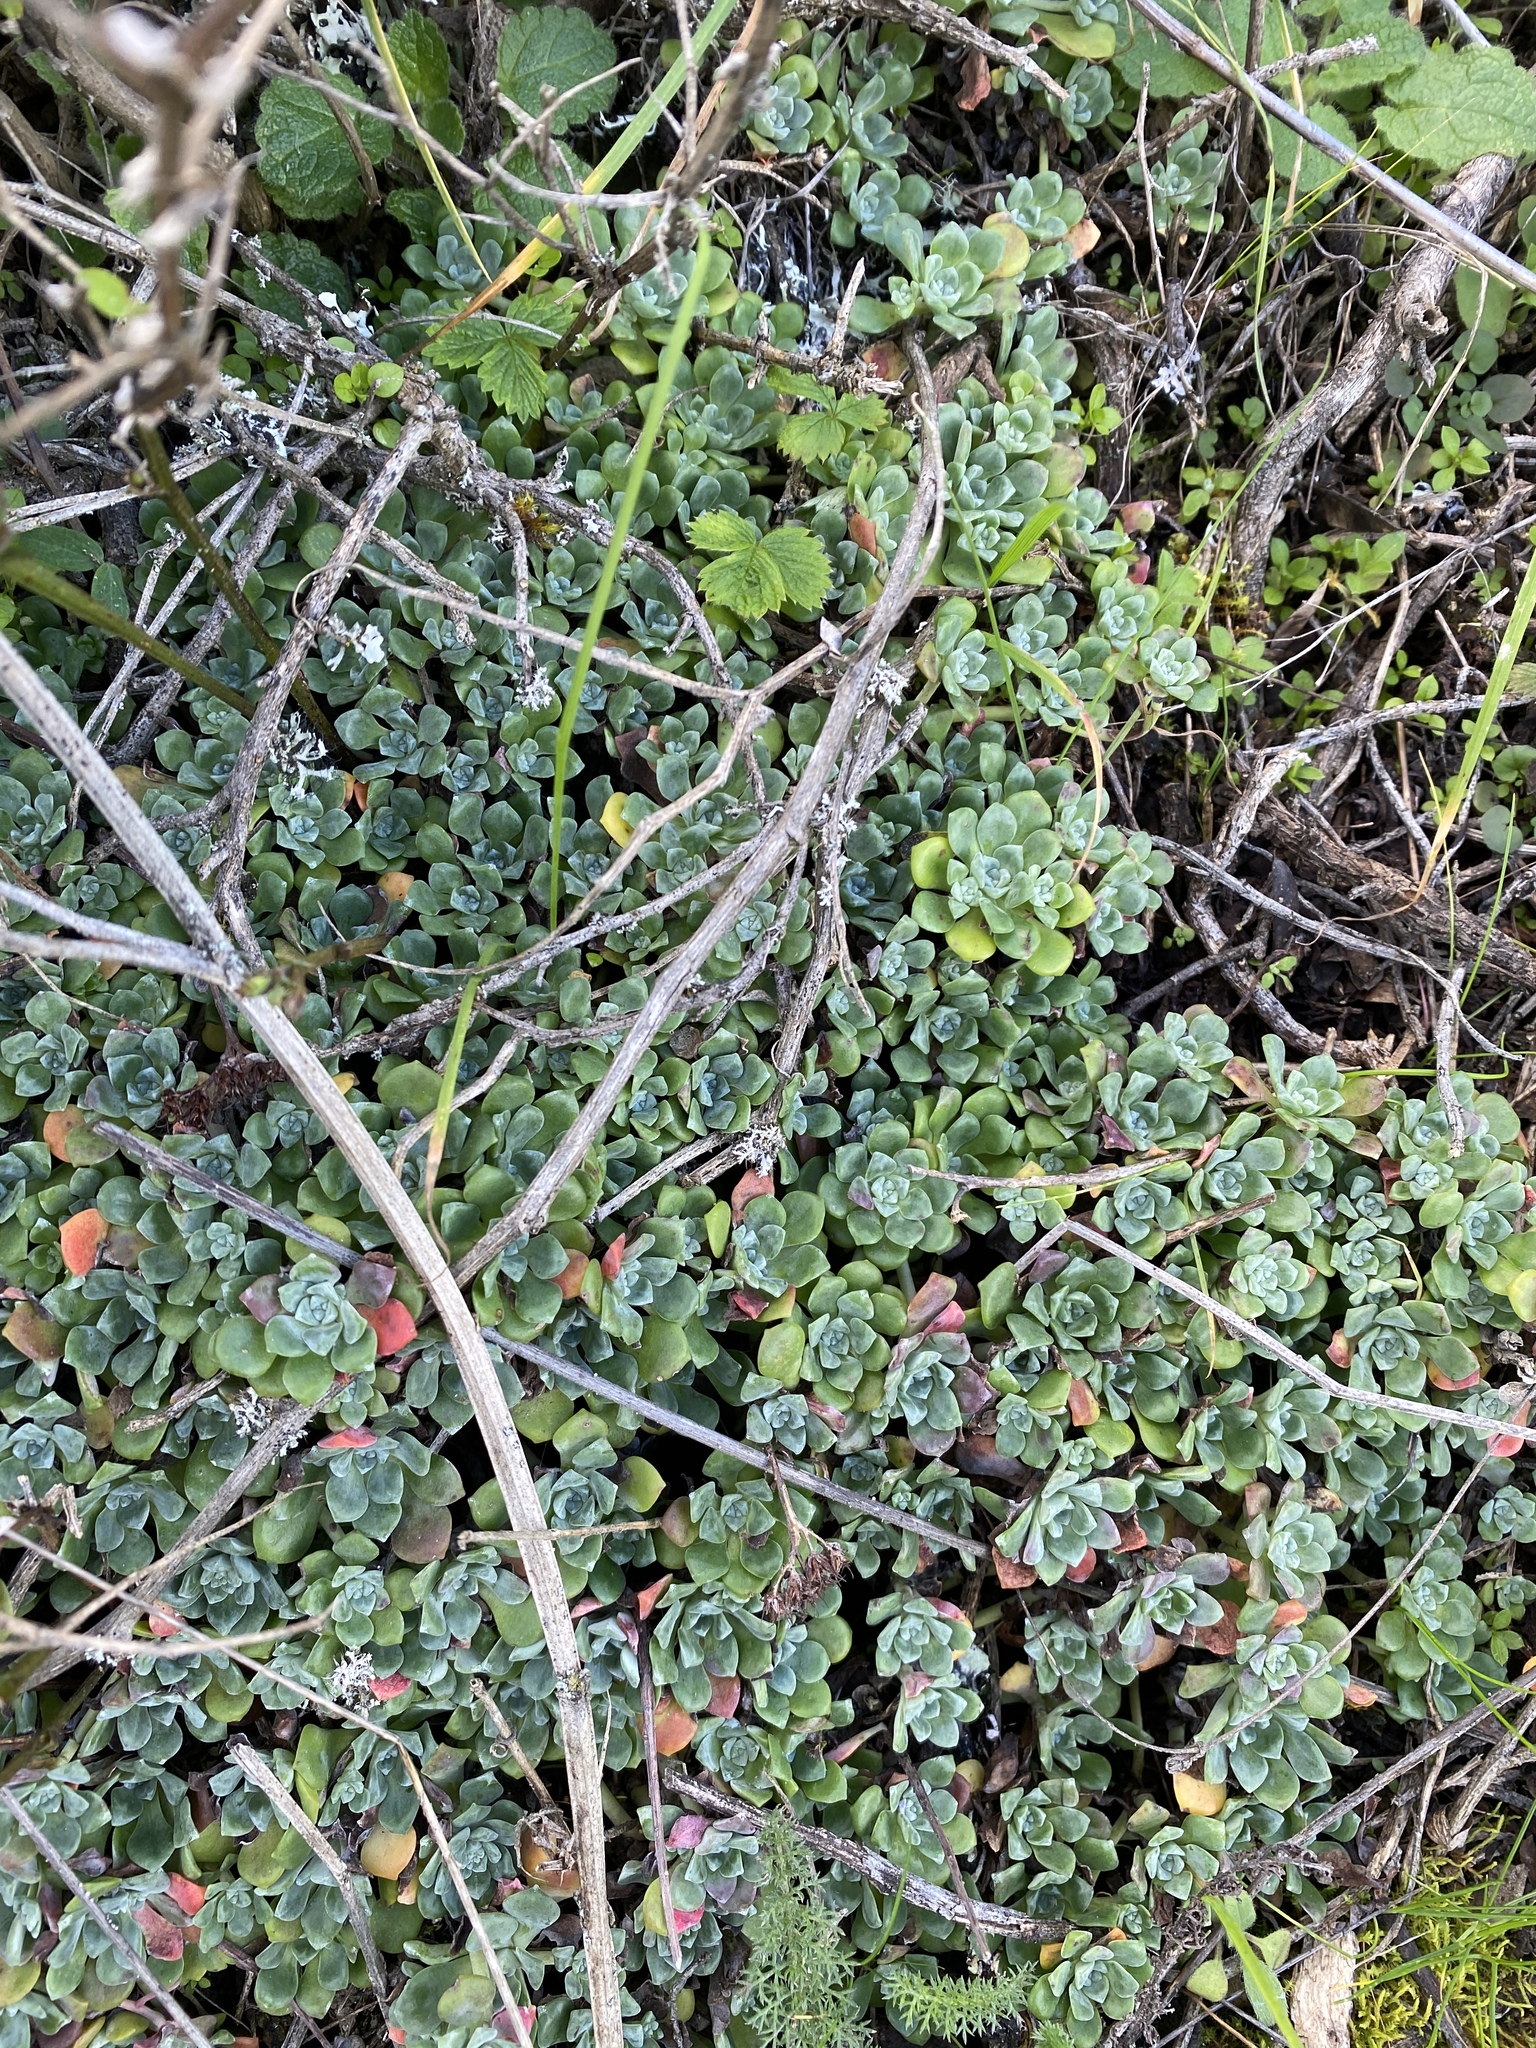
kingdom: Plantae
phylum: Tracheophyta
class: Magnoliopsida
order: Saxifragales
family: Crassulaceae
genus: Sedum
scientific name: Sedum spathulifolium
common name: Colorado stonecrop
